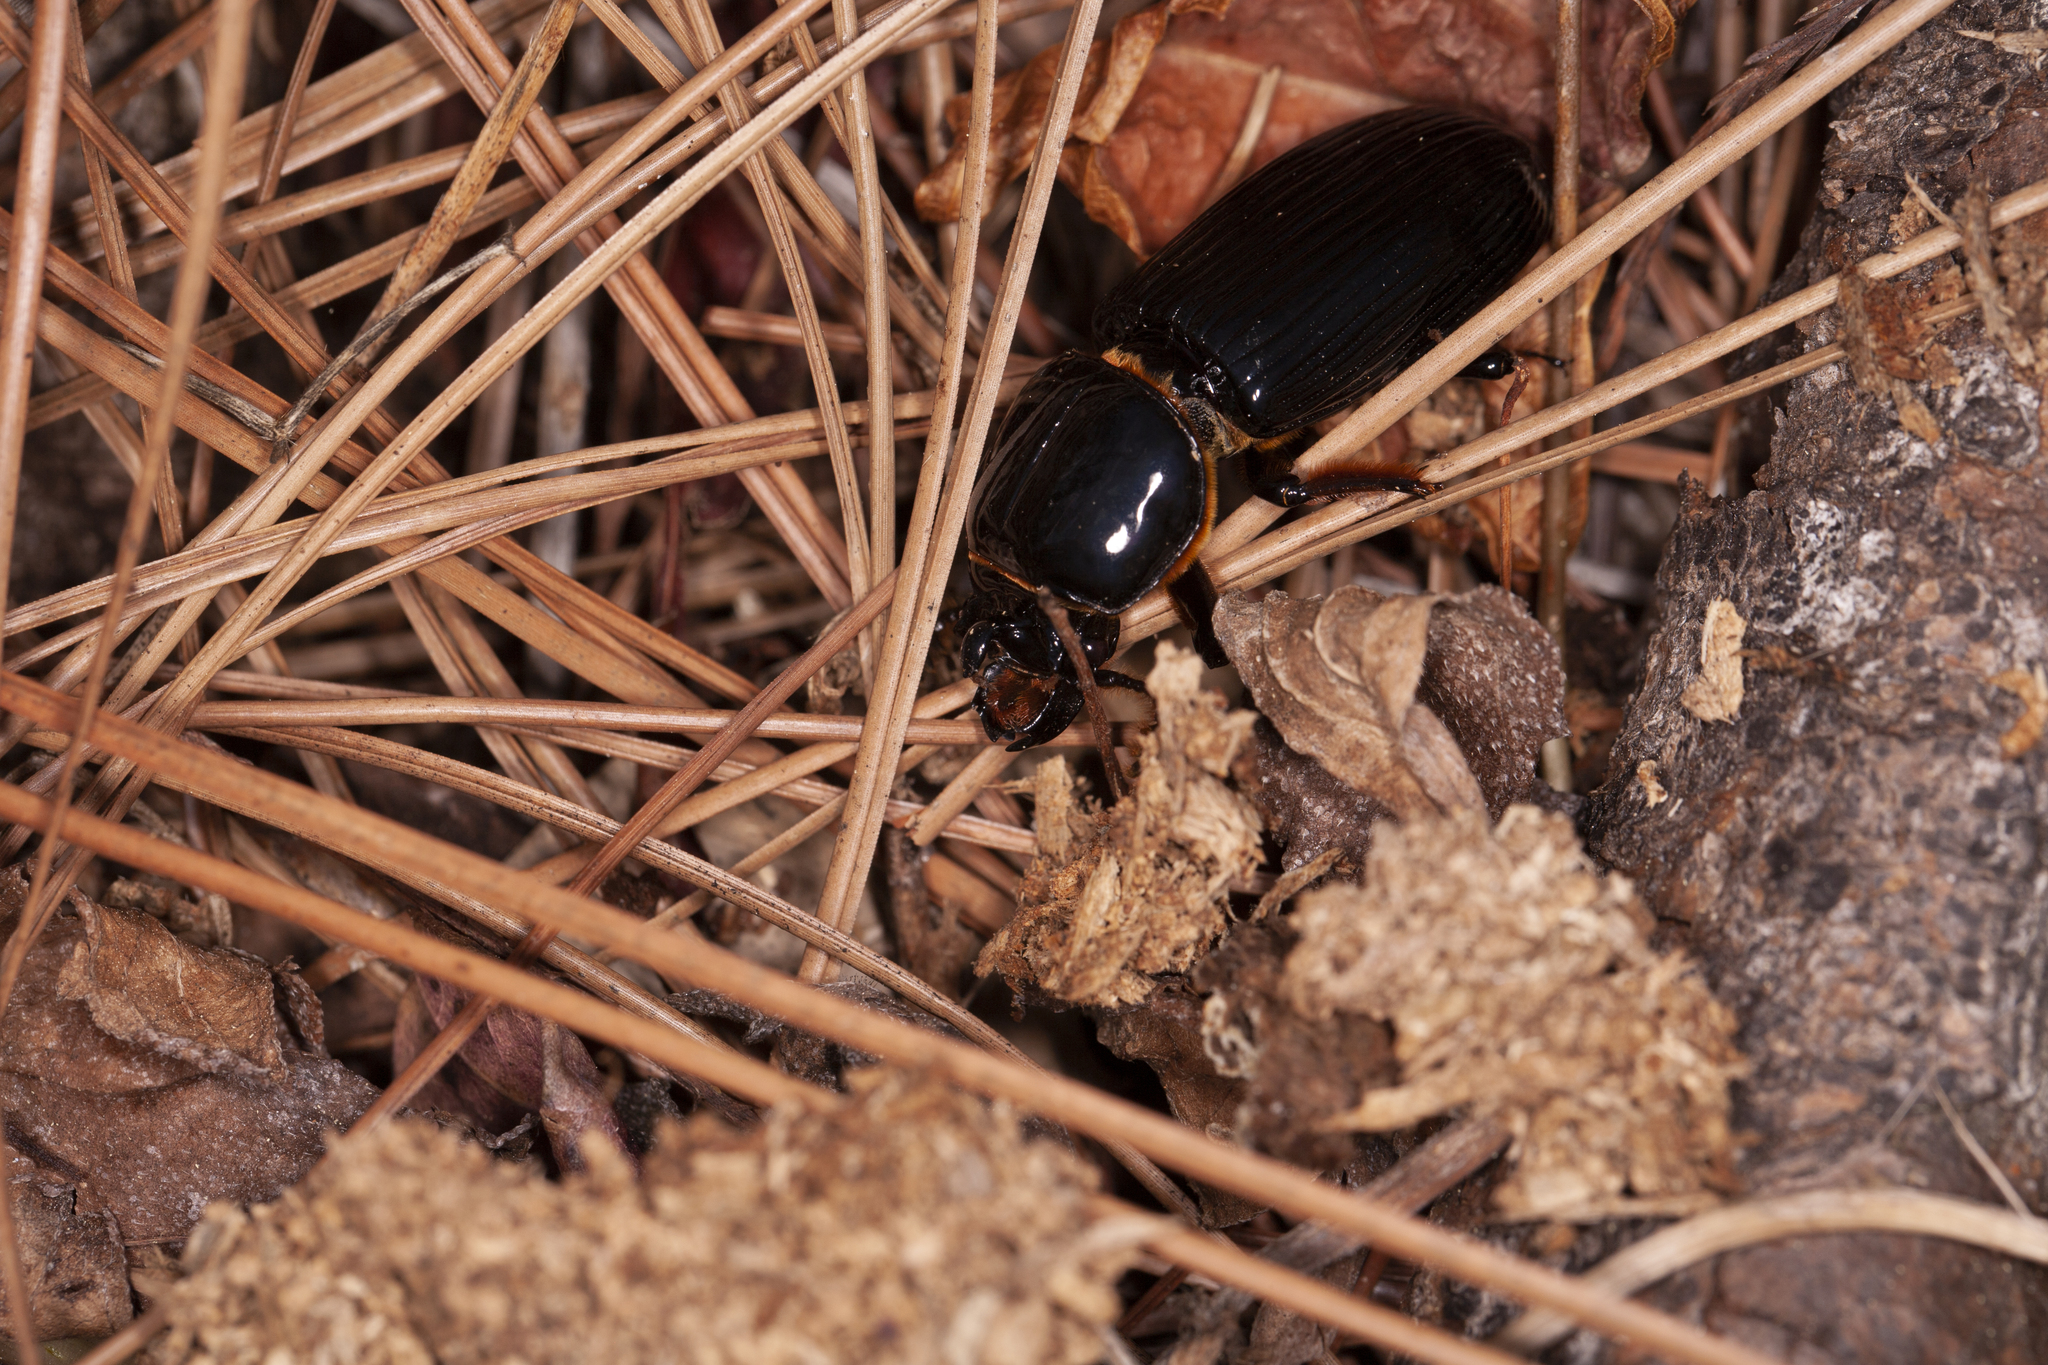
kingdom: Animalia
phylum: Arthropoda
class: Insecta
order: Coleoptera
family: Passalidae
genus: Odontotaenius
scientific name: Odontotaenius disjunctus
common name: Patent leather beetle
